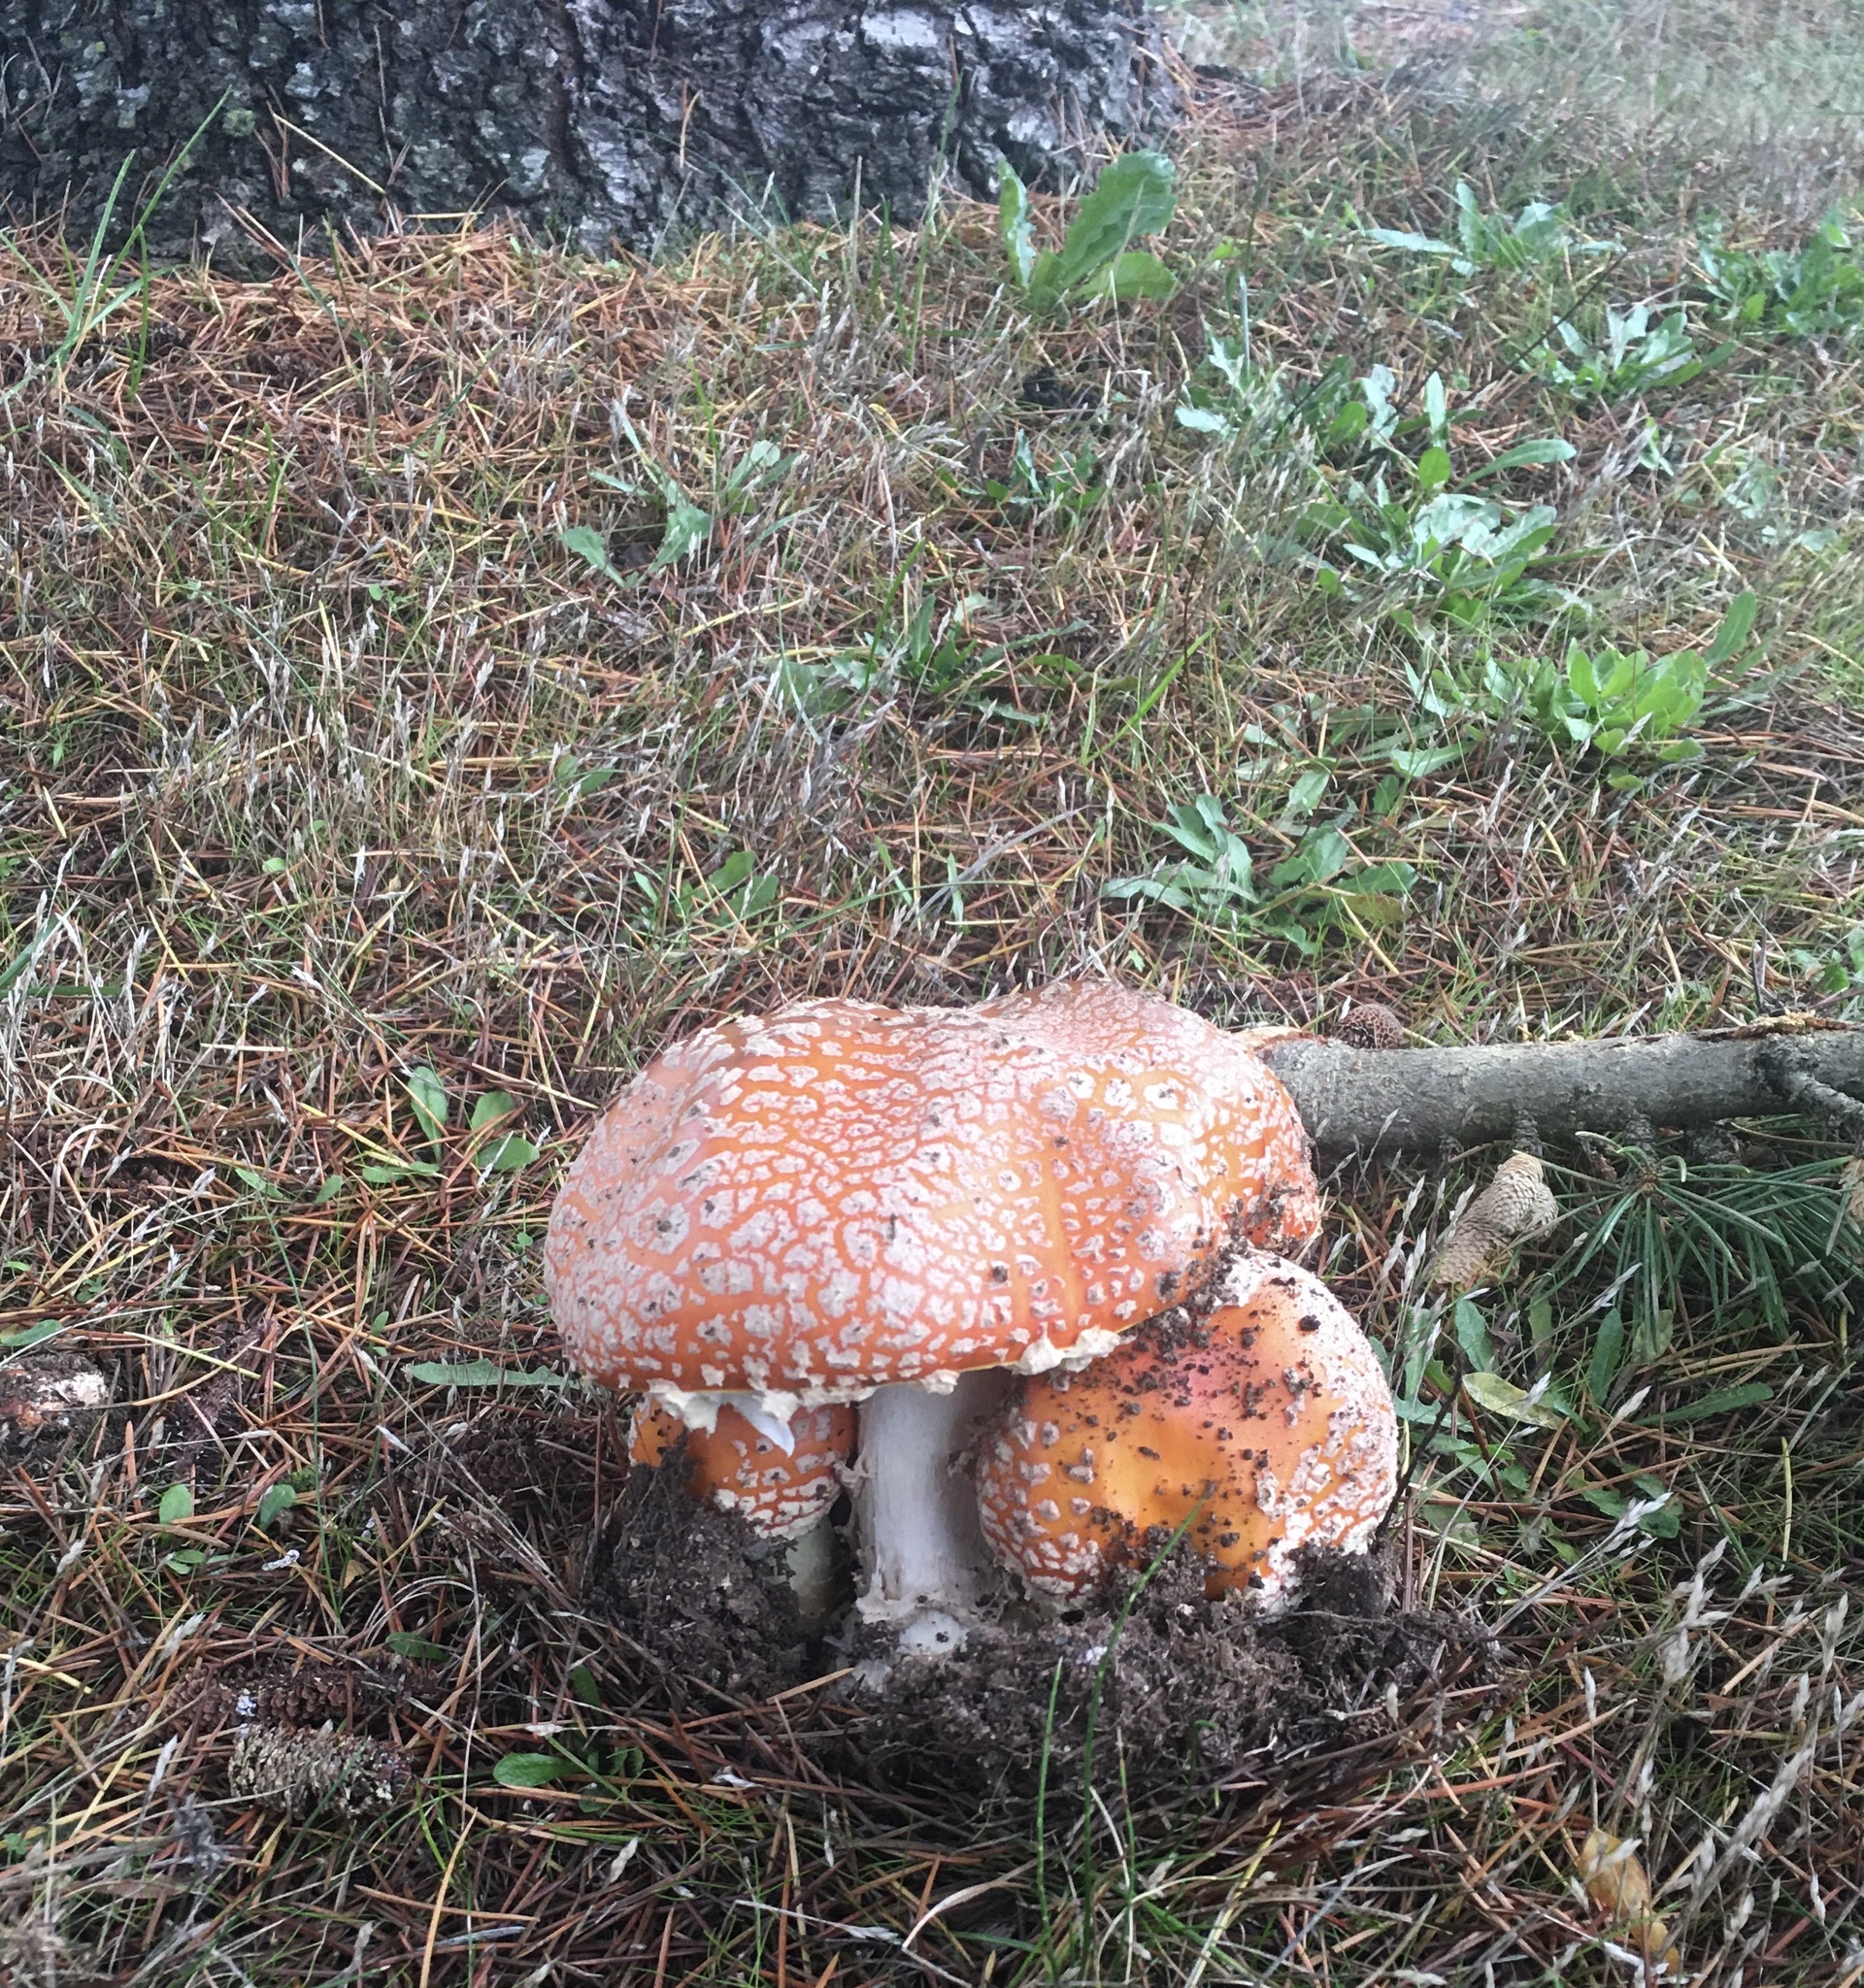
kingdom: Fungi
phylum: Basidiomycota
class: Agaricomycetes
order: Agaricales
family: Amanitaceae
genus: Amanita
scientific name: Amanita muscaria
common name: Fly agaric
